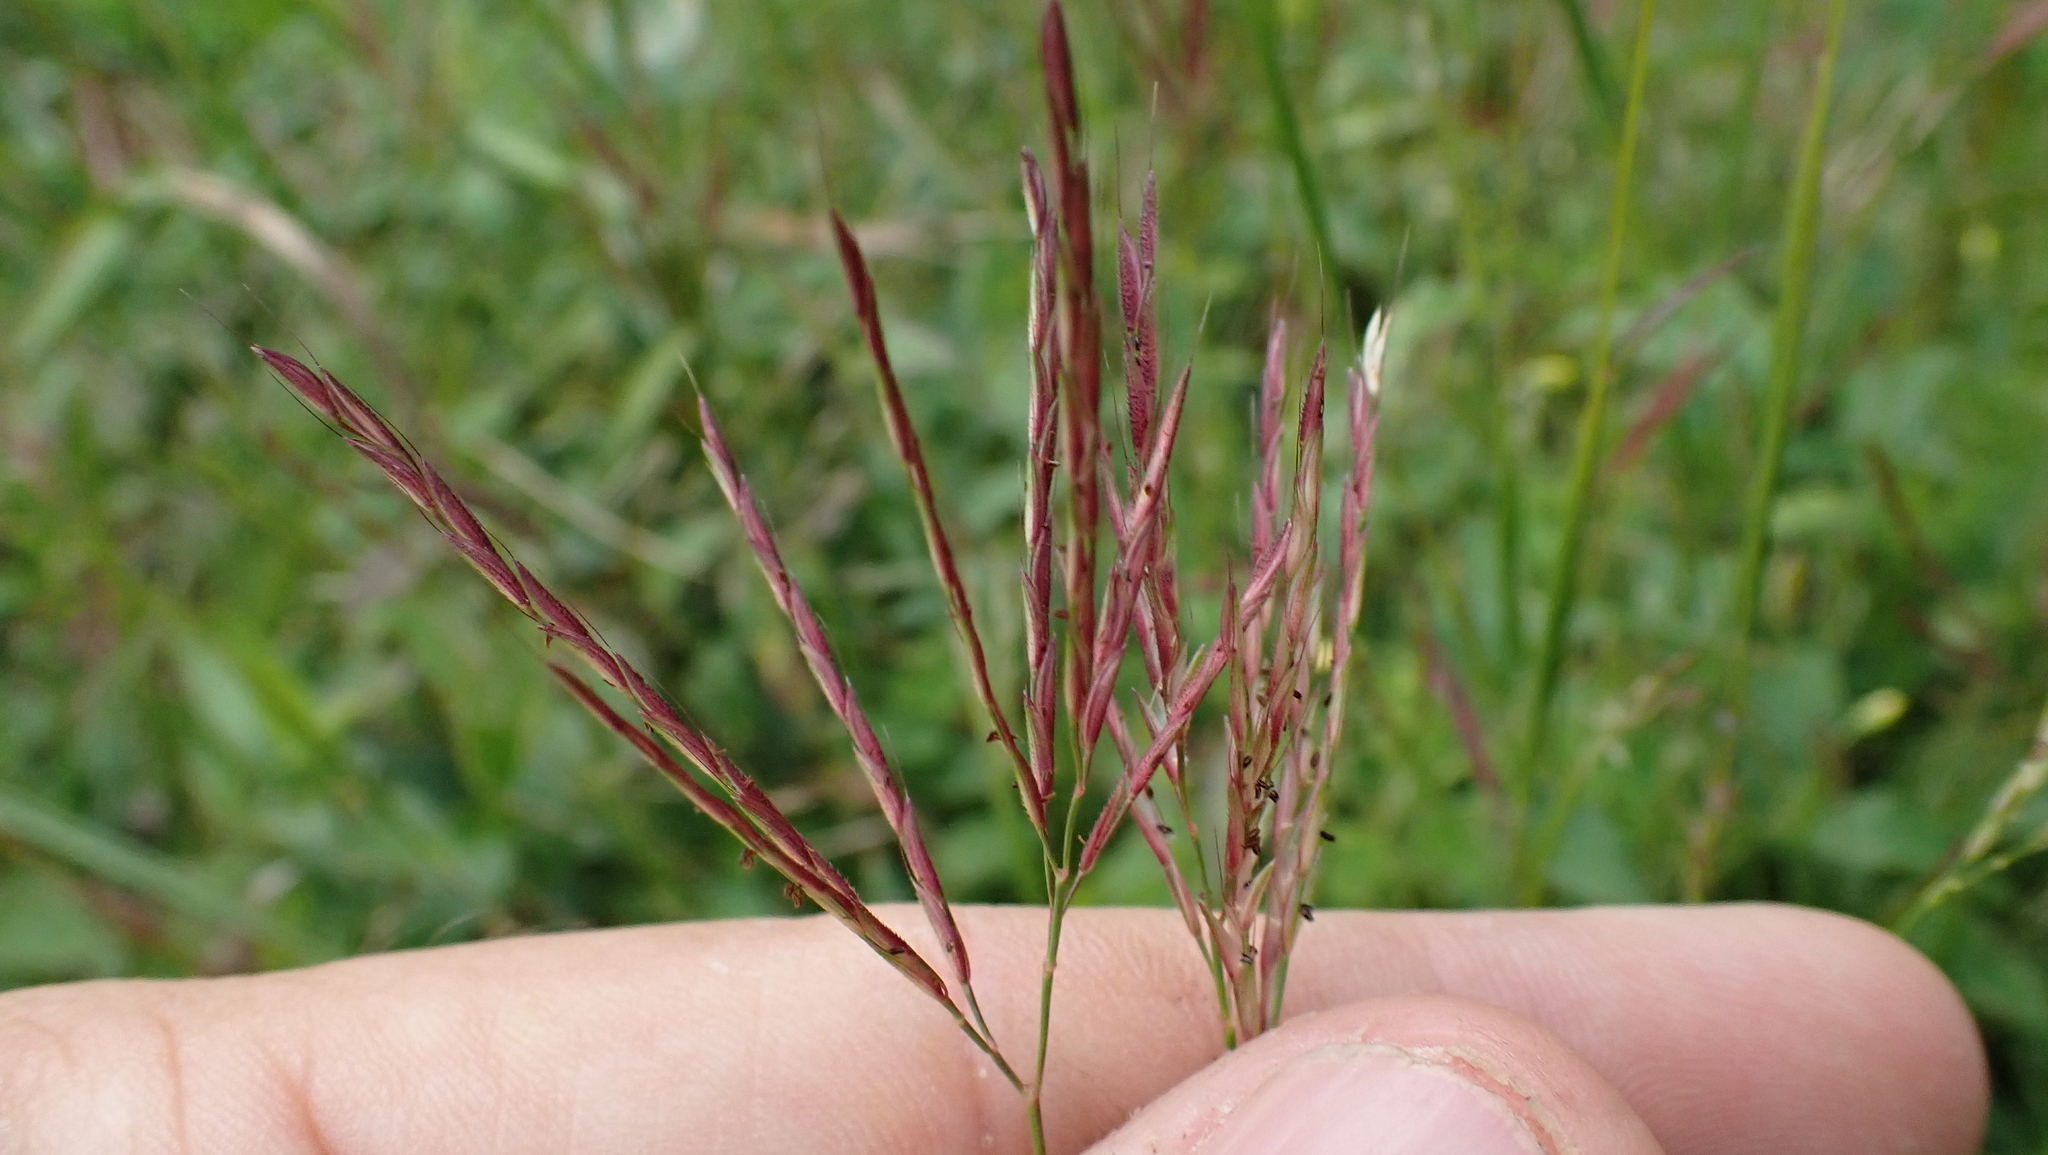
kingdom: Plantae
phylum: Tracheophyta
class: Liliopsida
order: Poales
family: Poaceae
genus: Arthraxon
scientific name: Arthraxon hispidus
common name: Small carpgrass
